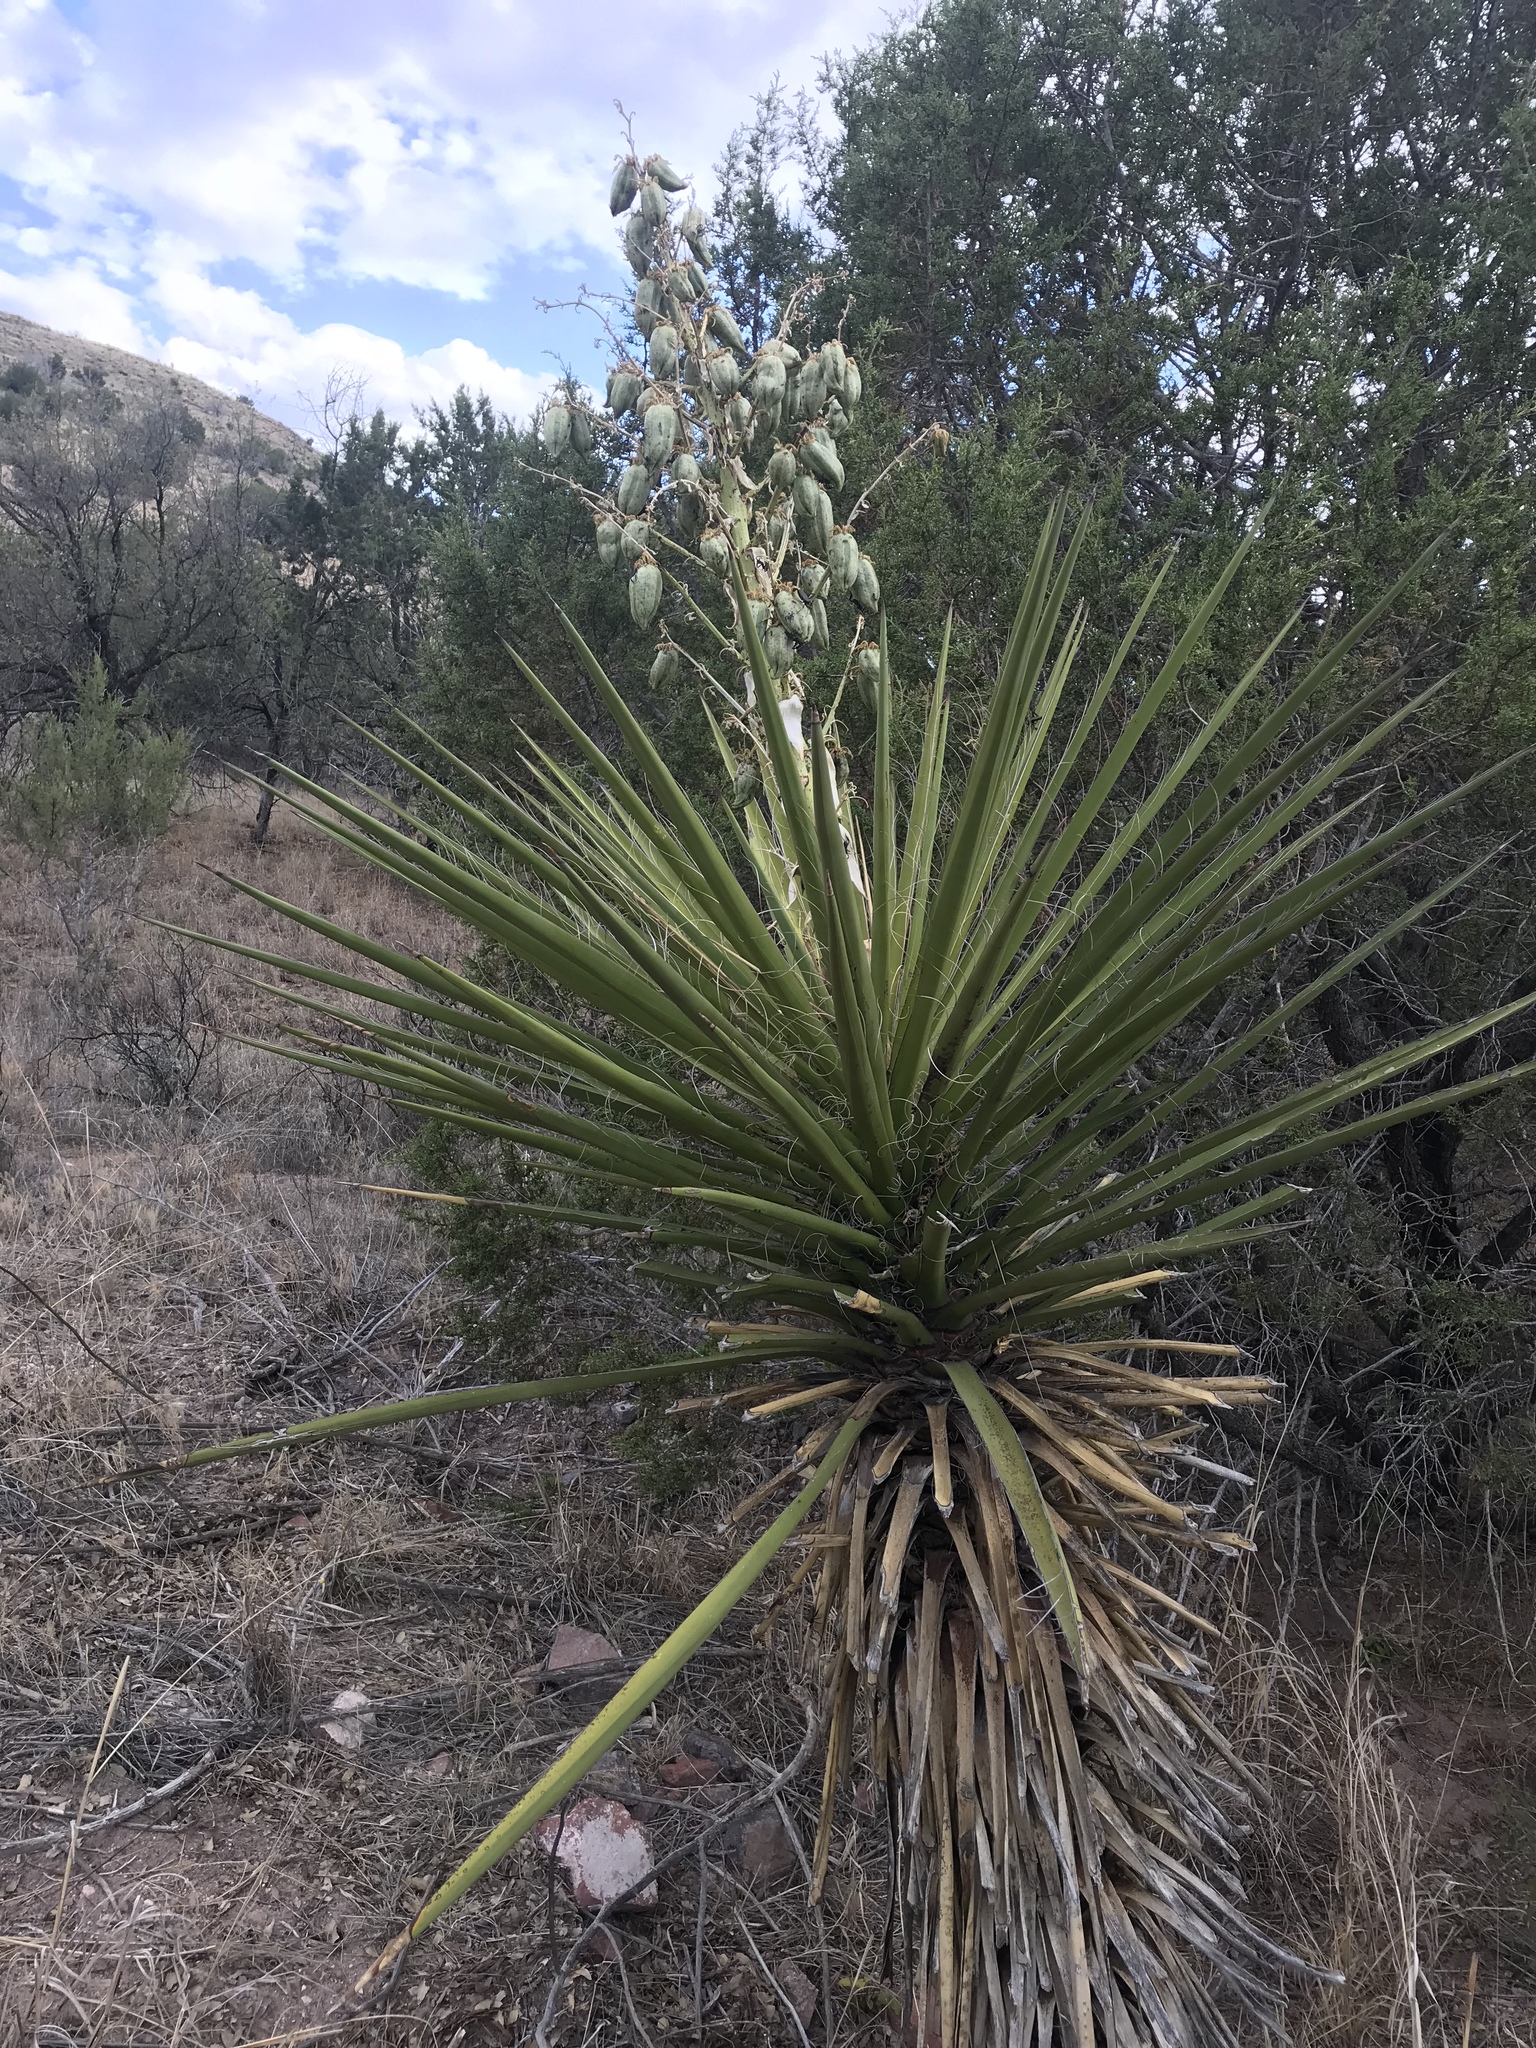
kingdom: Plantae
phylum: Tracheophyta
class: Liliopsida
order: Asparagales
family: Asparagaceae
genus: Yucca
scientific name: Yucca treculiana
